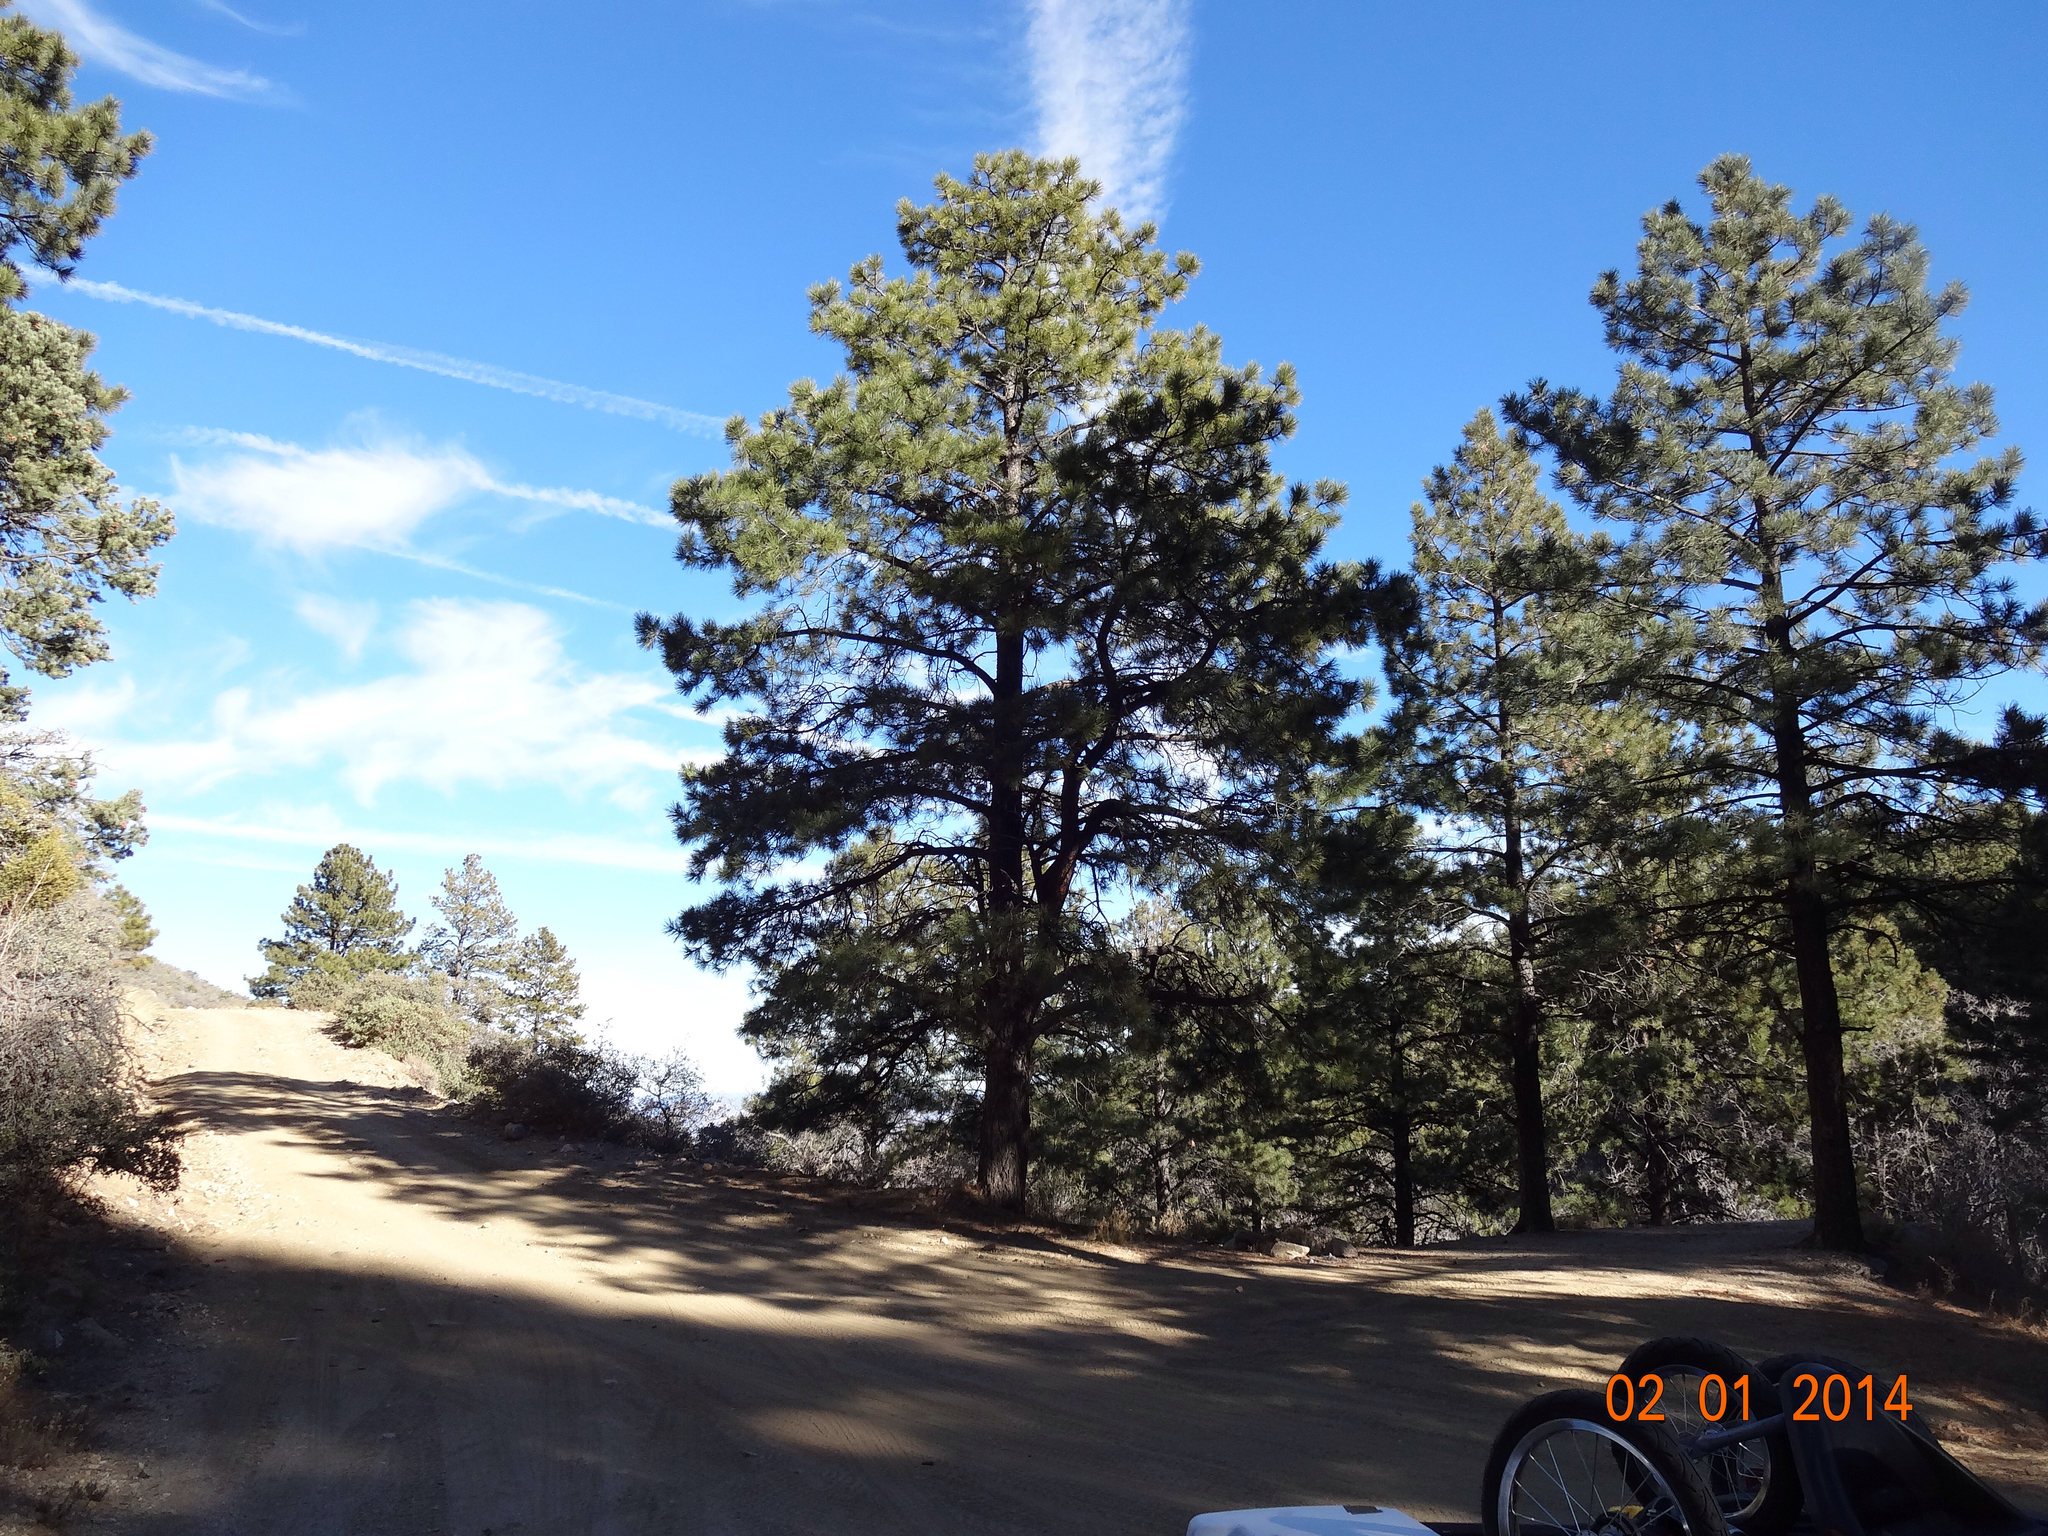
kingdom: Plantae
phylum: Tracheophyta
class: Pinopsida
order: Pinales
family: Pinaceae
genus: Pinus
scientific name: Pinus ponderosa
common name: Western yellow-pine
